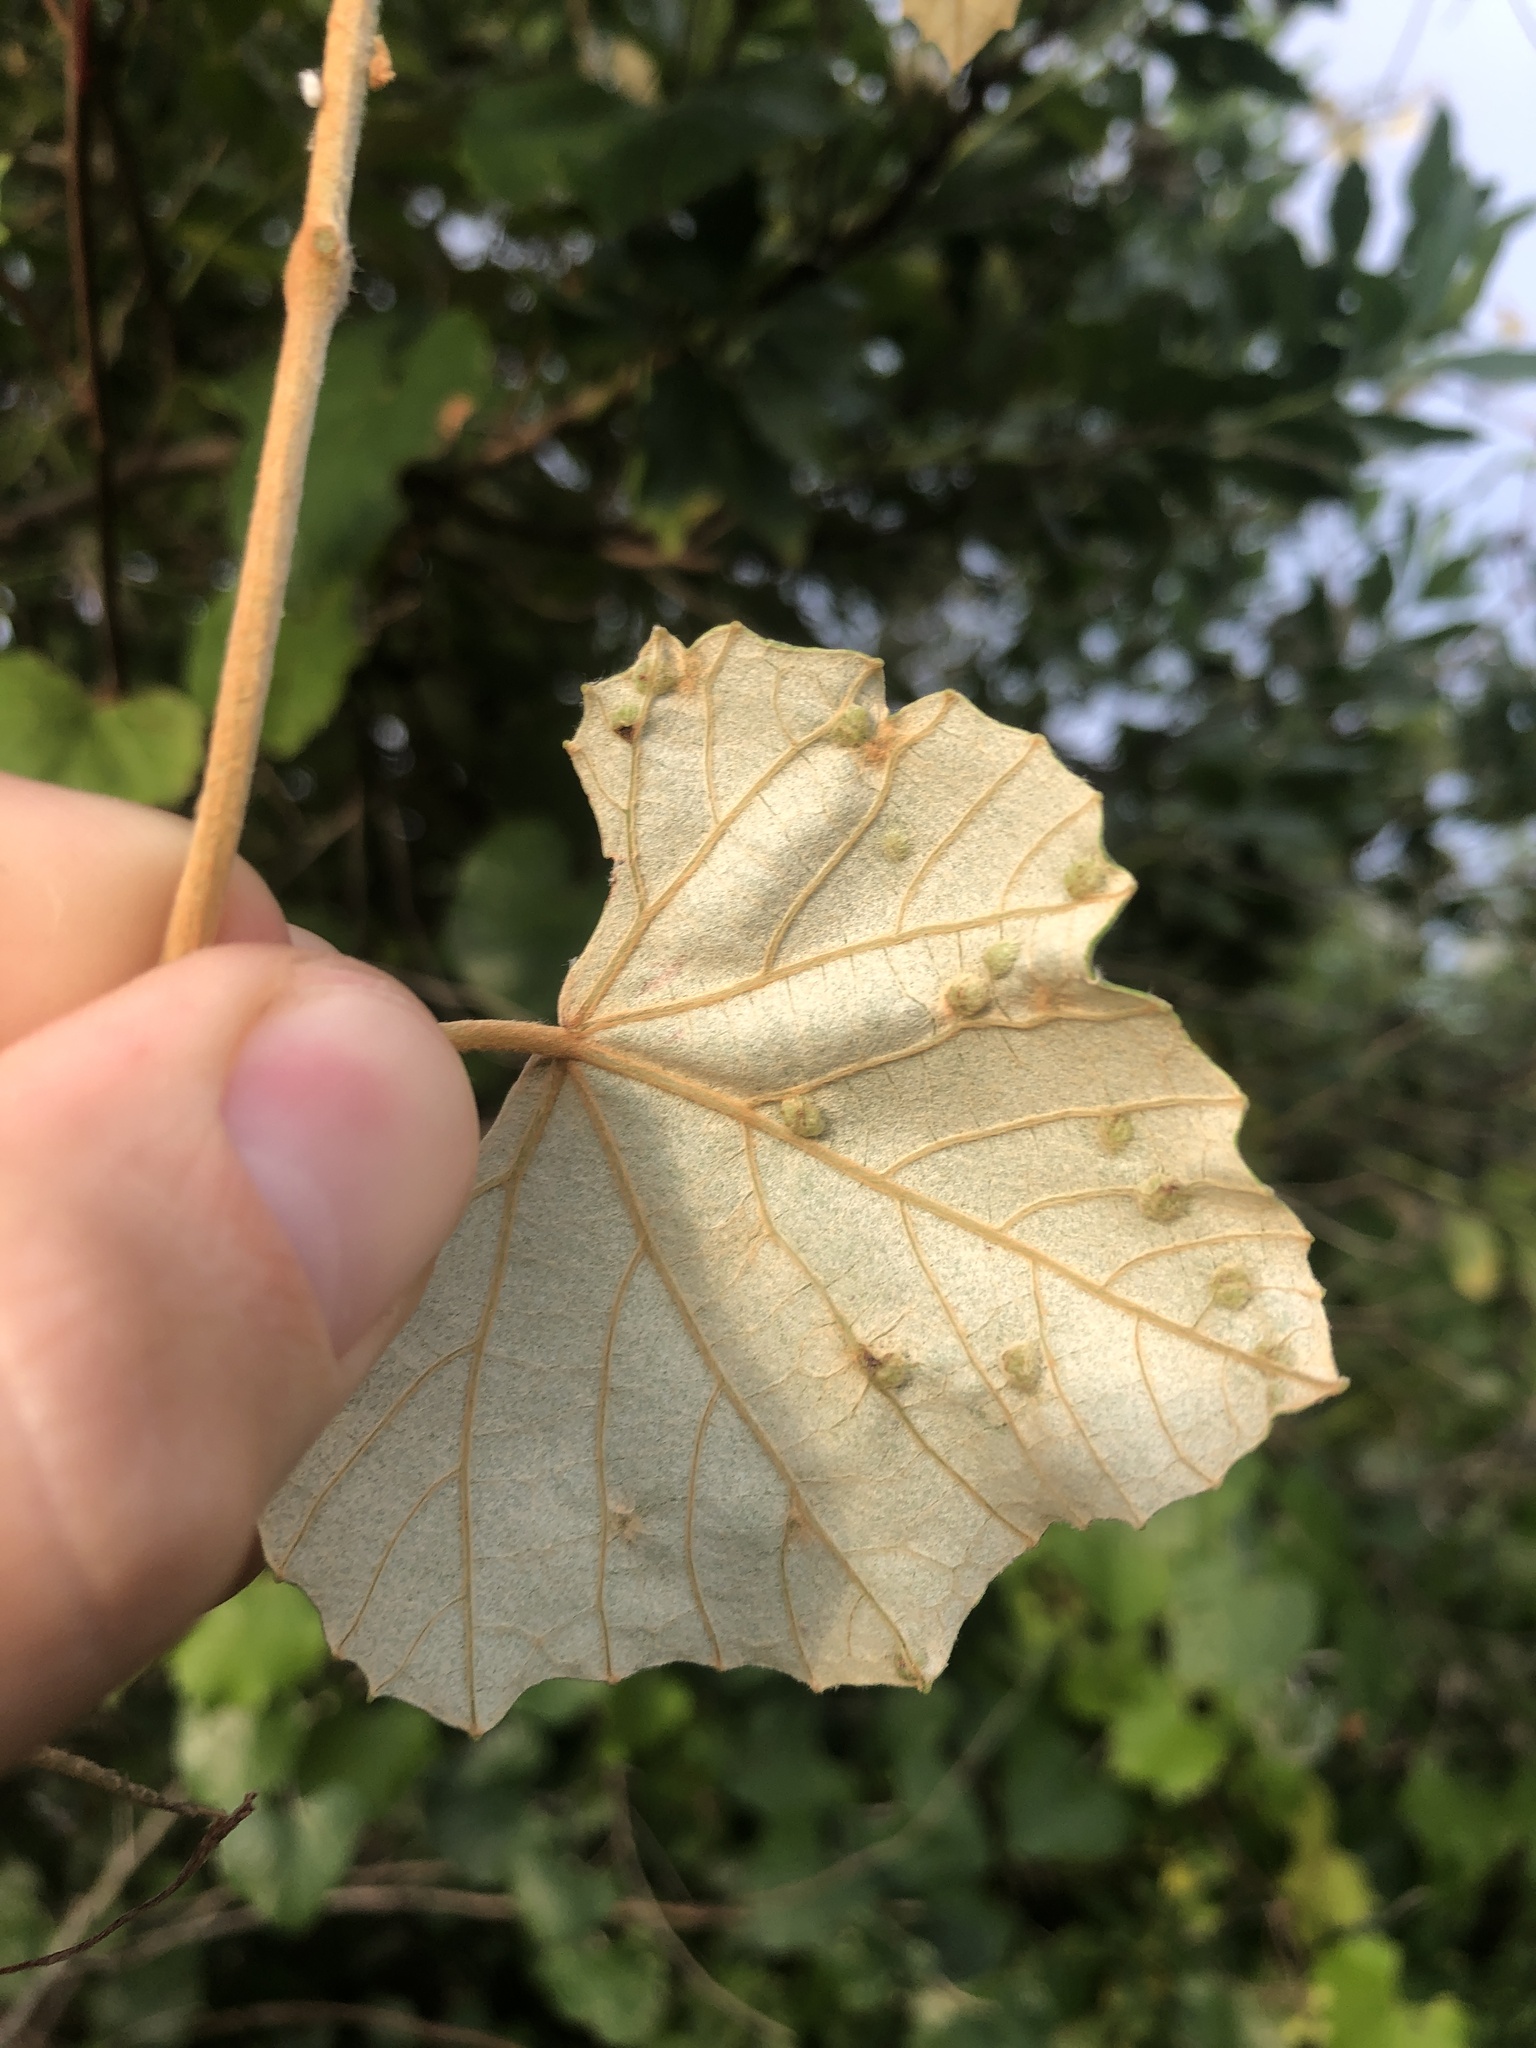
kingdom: Plantae
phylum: Tracheophyta
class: Magnoliopsida
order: Vitales
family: Vitaceae
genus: Vitis
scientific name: Vitis shuttleworthii
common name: Caloosa grape
